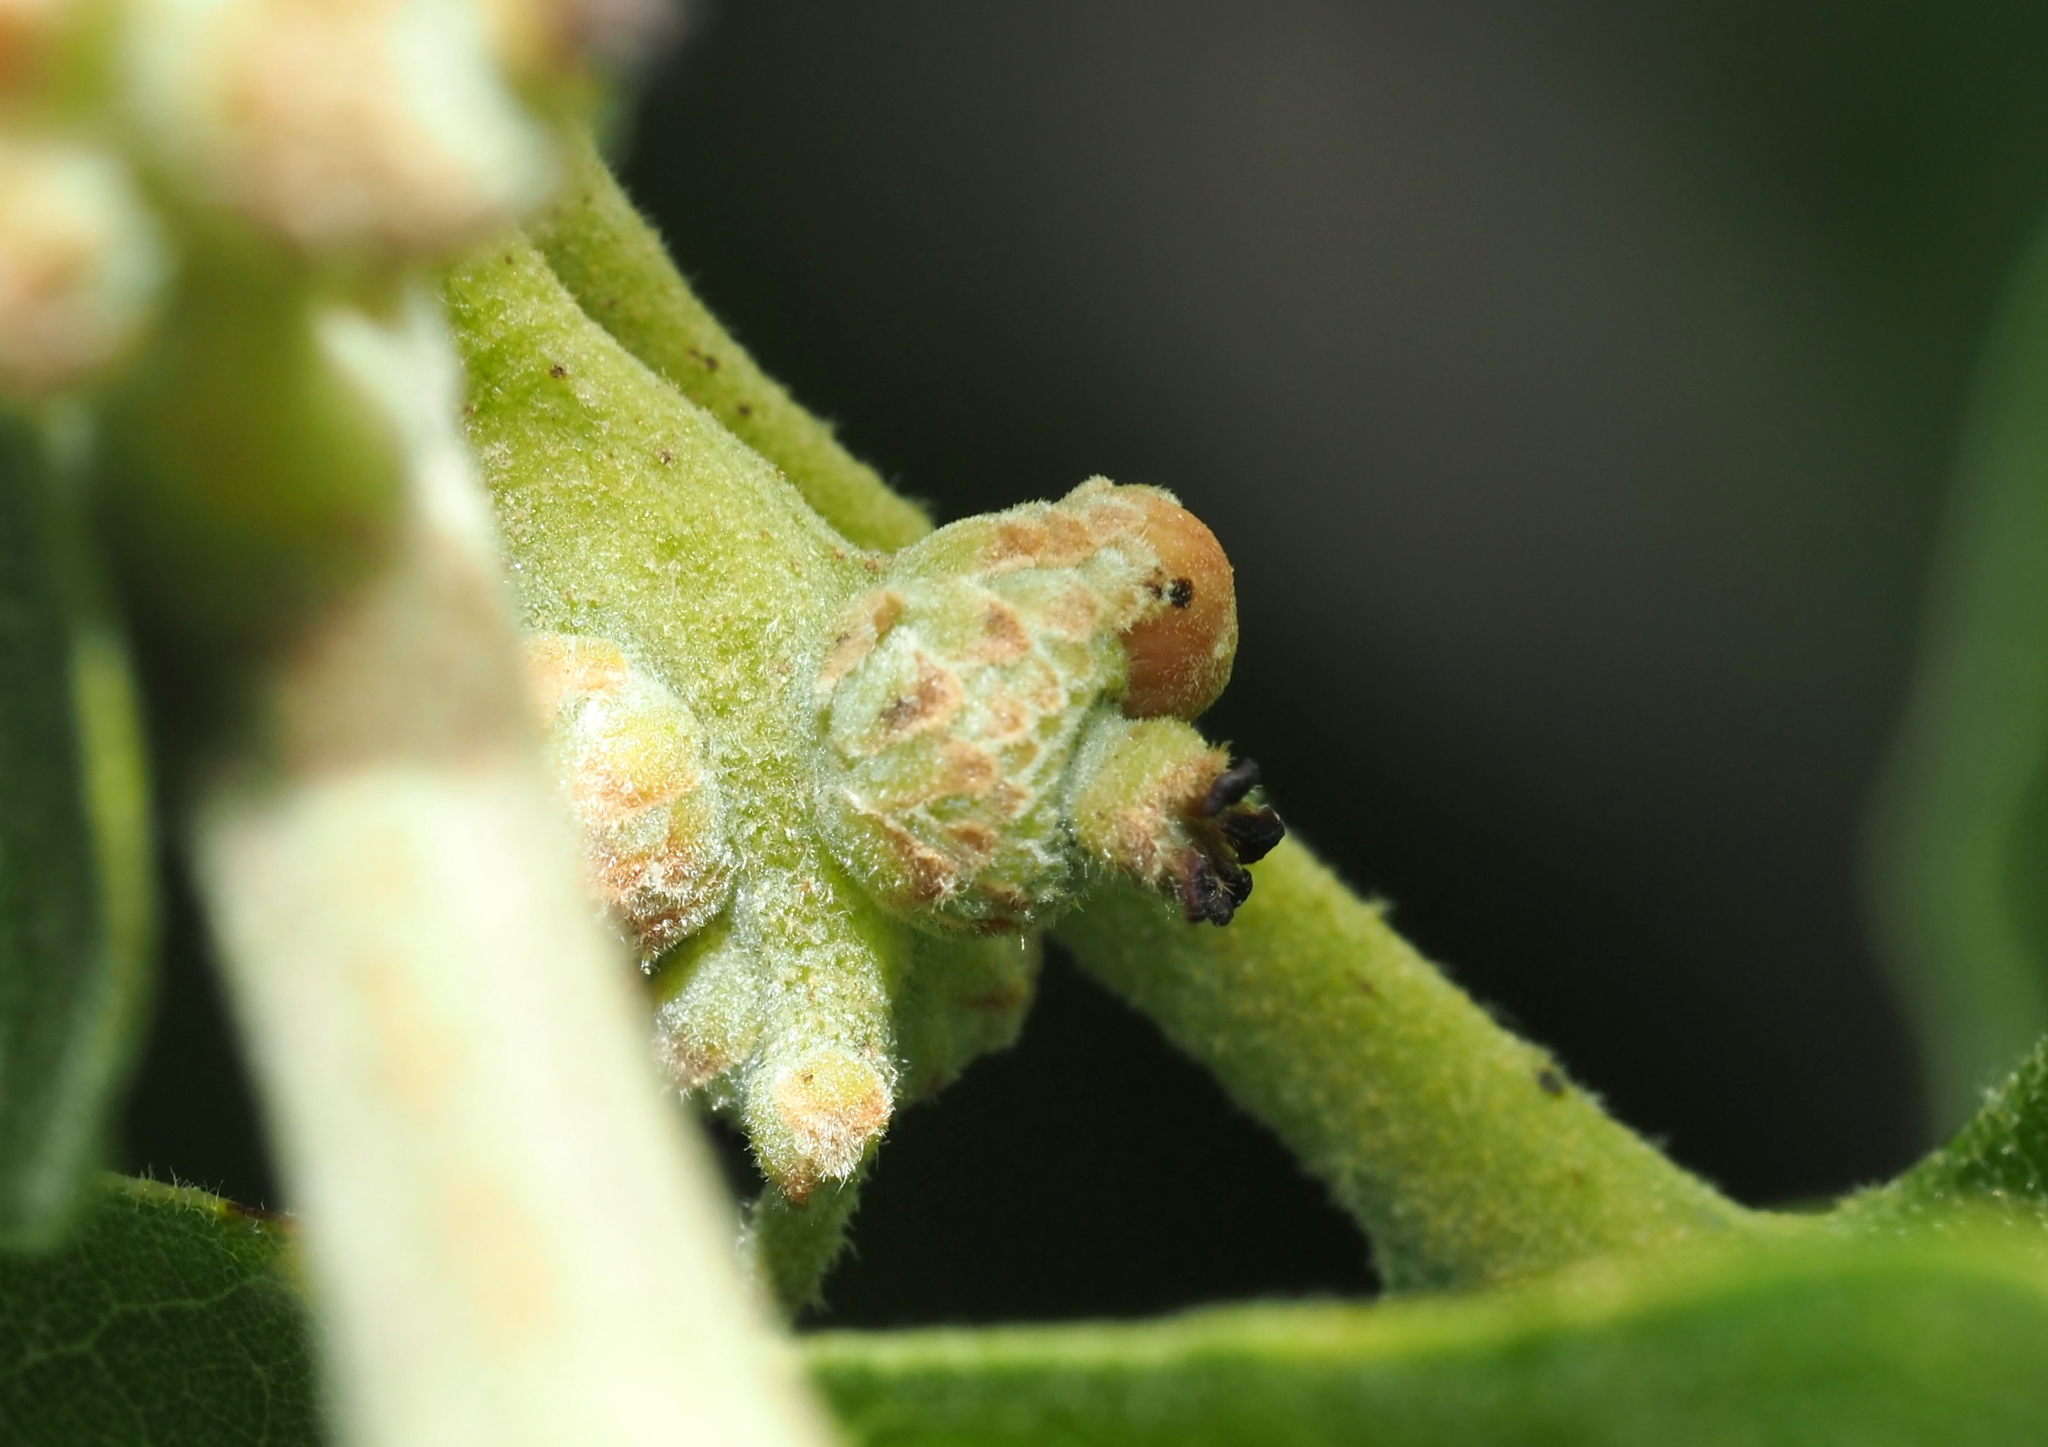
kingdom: Animalia
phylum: Arthropoda
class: Insecta
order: Hymenoptera
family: Cynipidae
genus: Callirhytis
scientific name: Callirhytis
